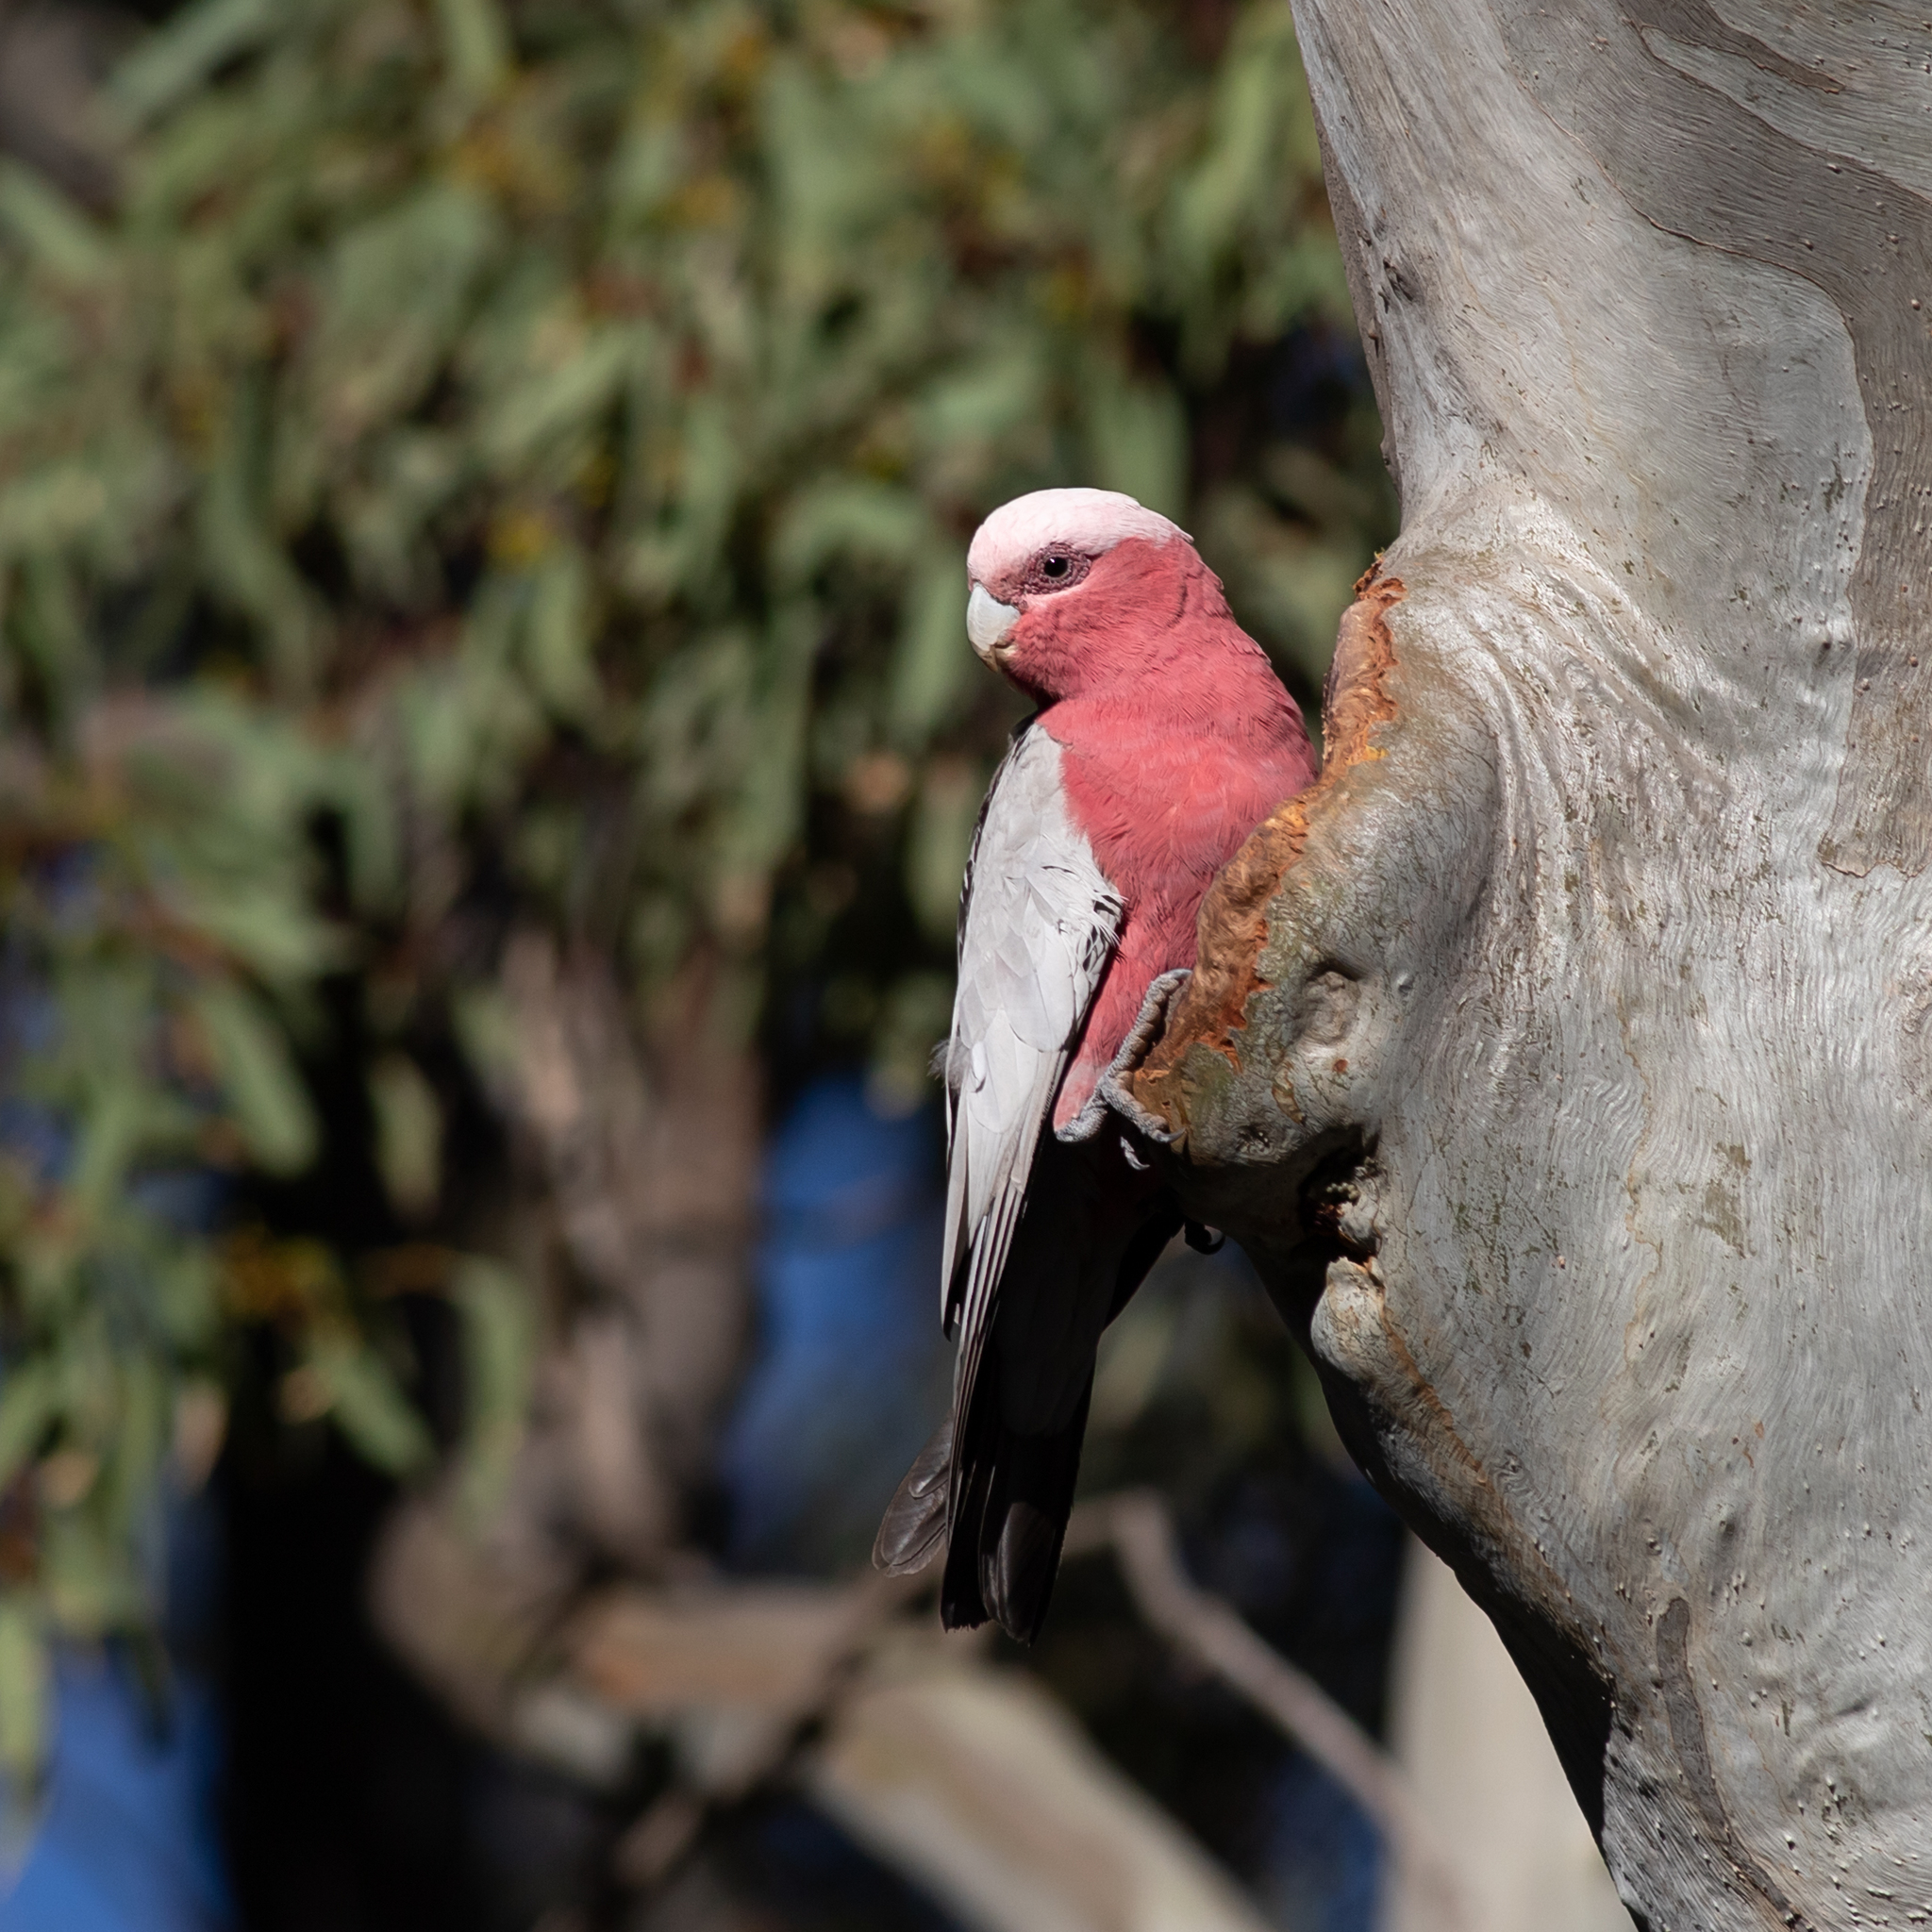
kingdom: Animalia
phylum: Chordata
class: Aves
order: Psittaciformes
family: Psittacidae
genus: Eolophus
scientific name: Eolophus roseicapilla
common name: Galah
